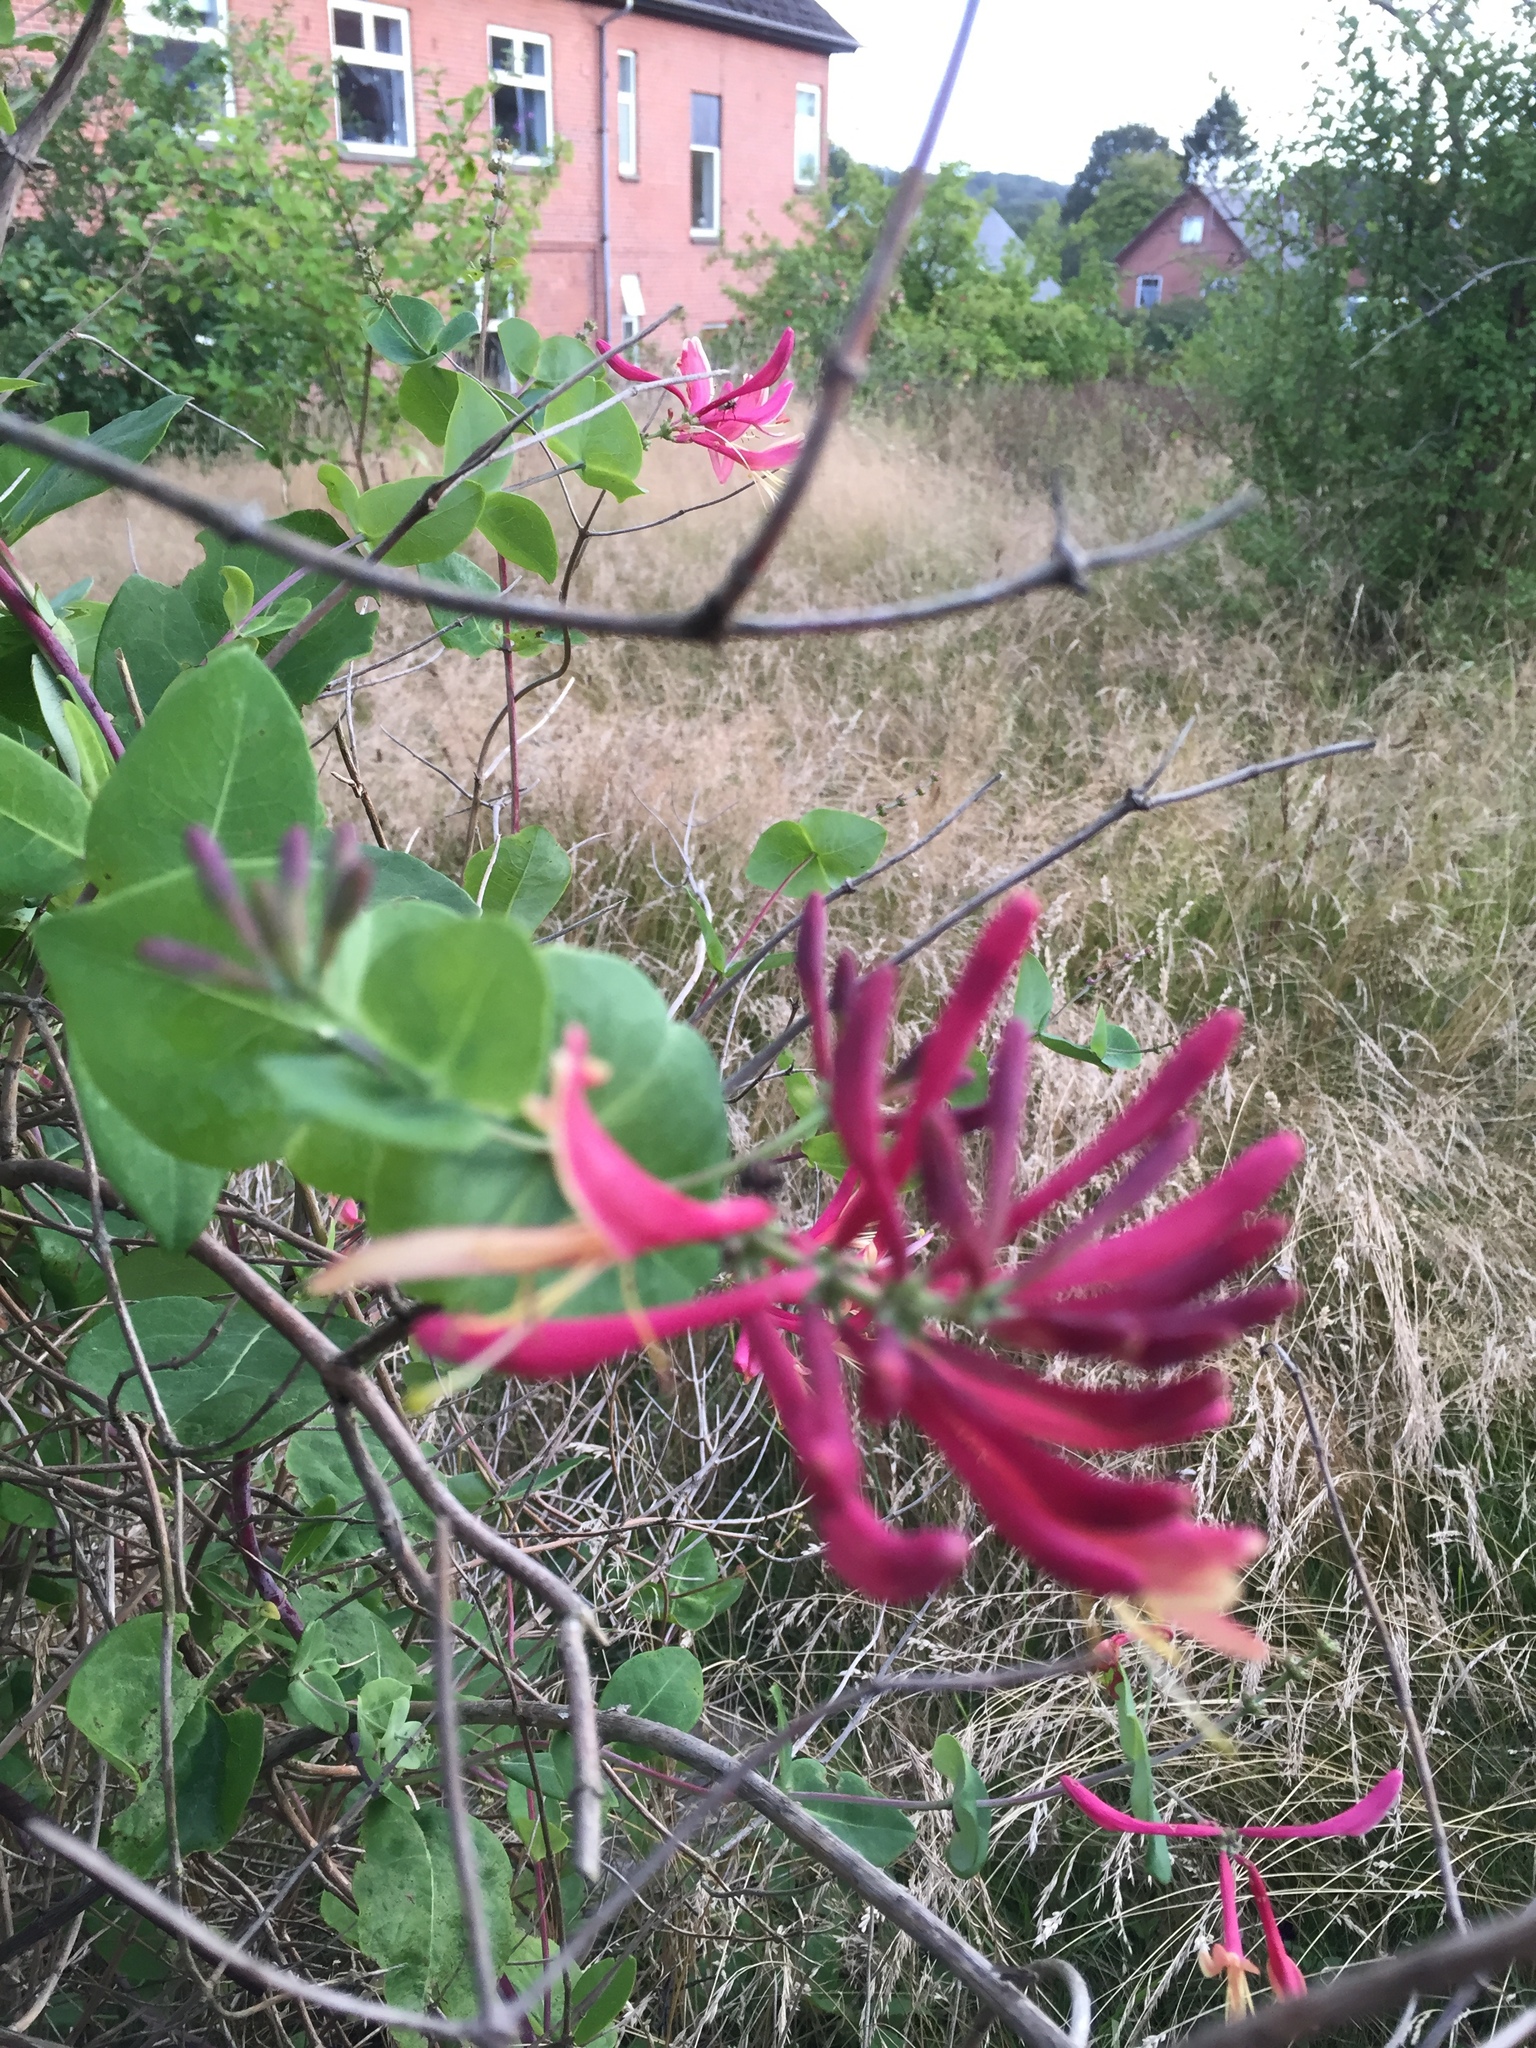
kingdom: Plantae
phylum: Tracheophyta
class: Magnoliopsida
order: Dipsacales
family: Caprifoliaceae
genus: Lonicera
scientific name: Lonicera periclymenum
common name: European honeysuckle
